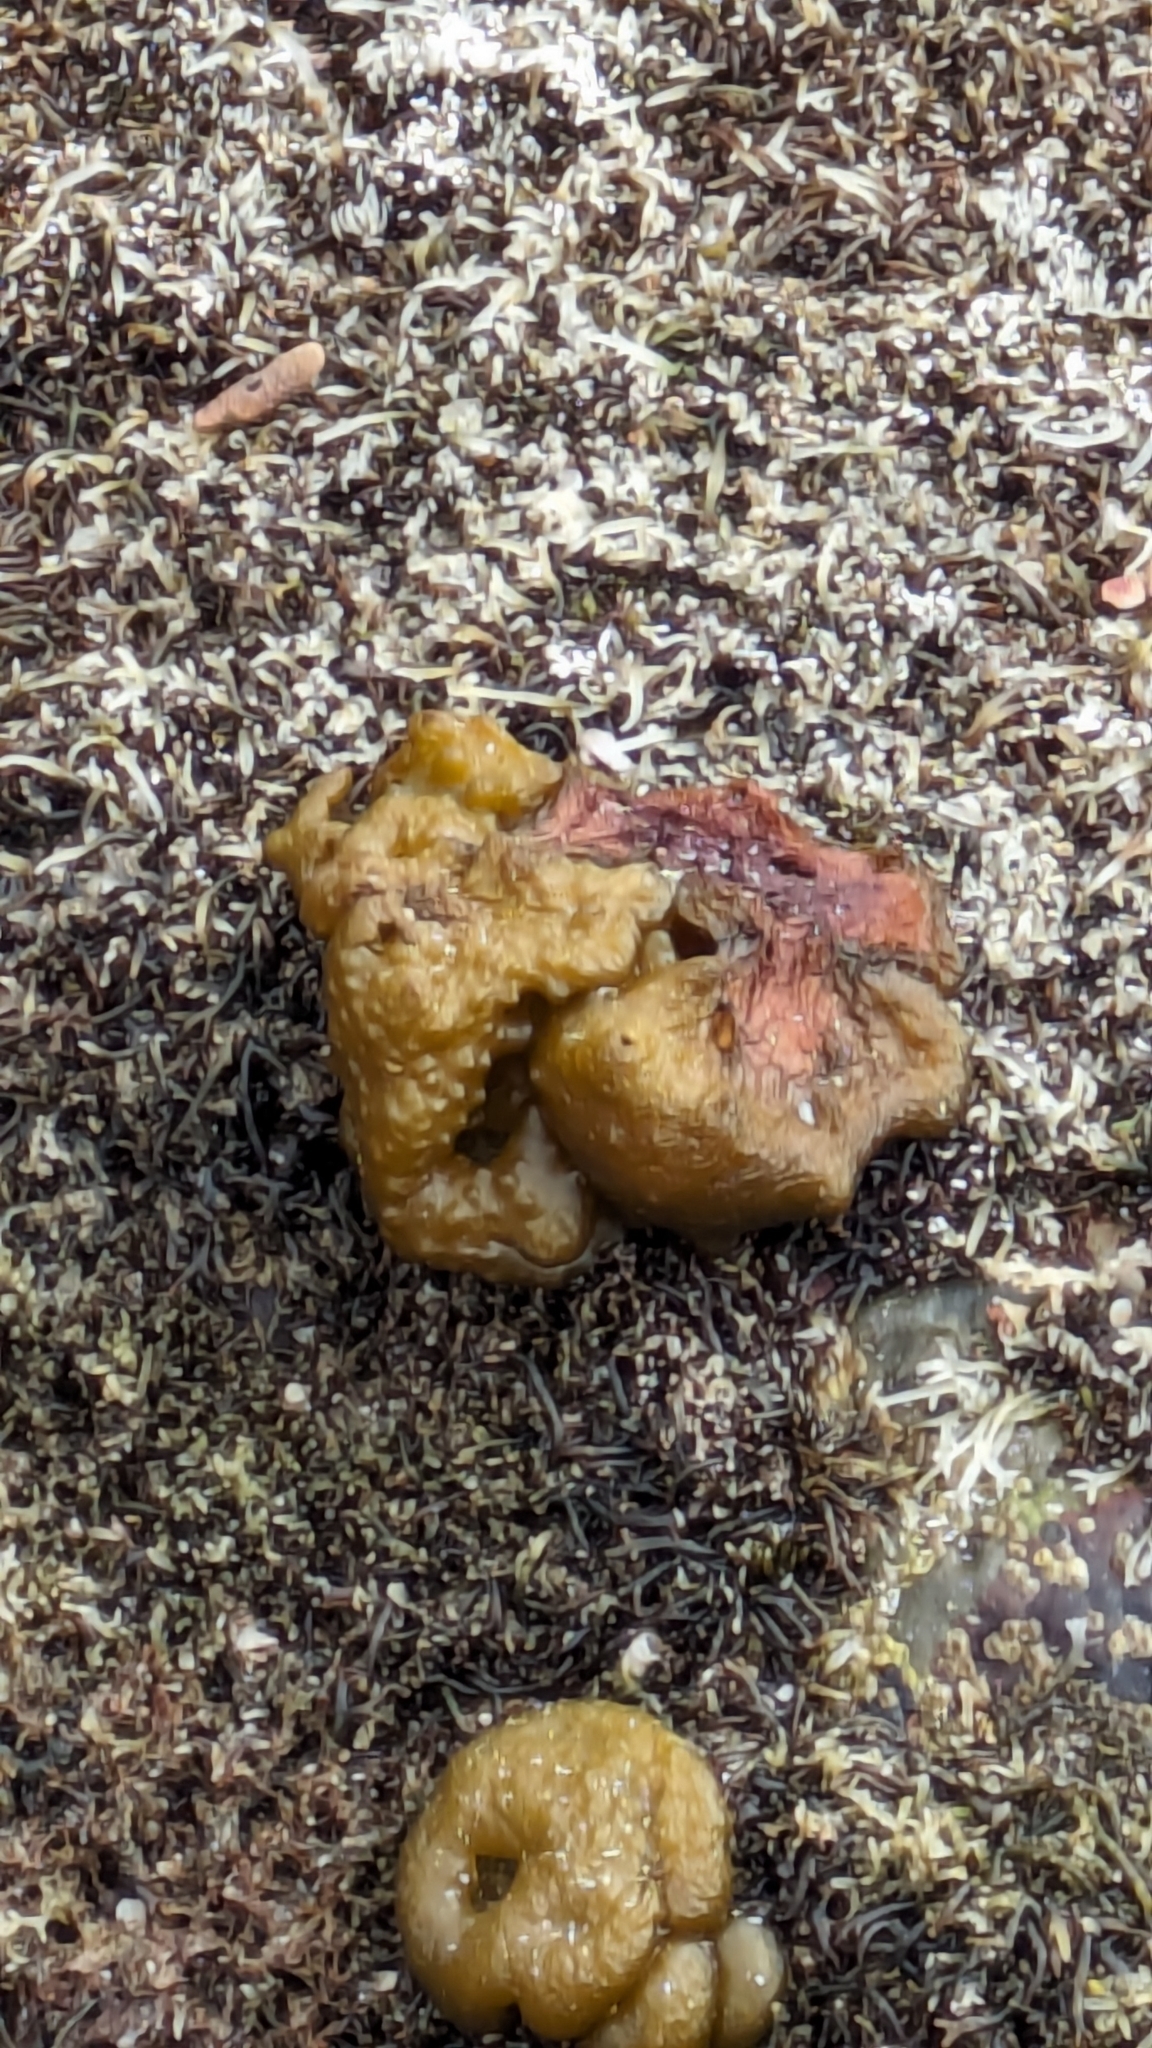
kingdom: Chromista
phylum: Ochrophyta
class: Phaeophyceae
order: Scytosiphonales
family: Scytosiphonaceae
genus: Colpomenia
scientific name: Colpomenia
